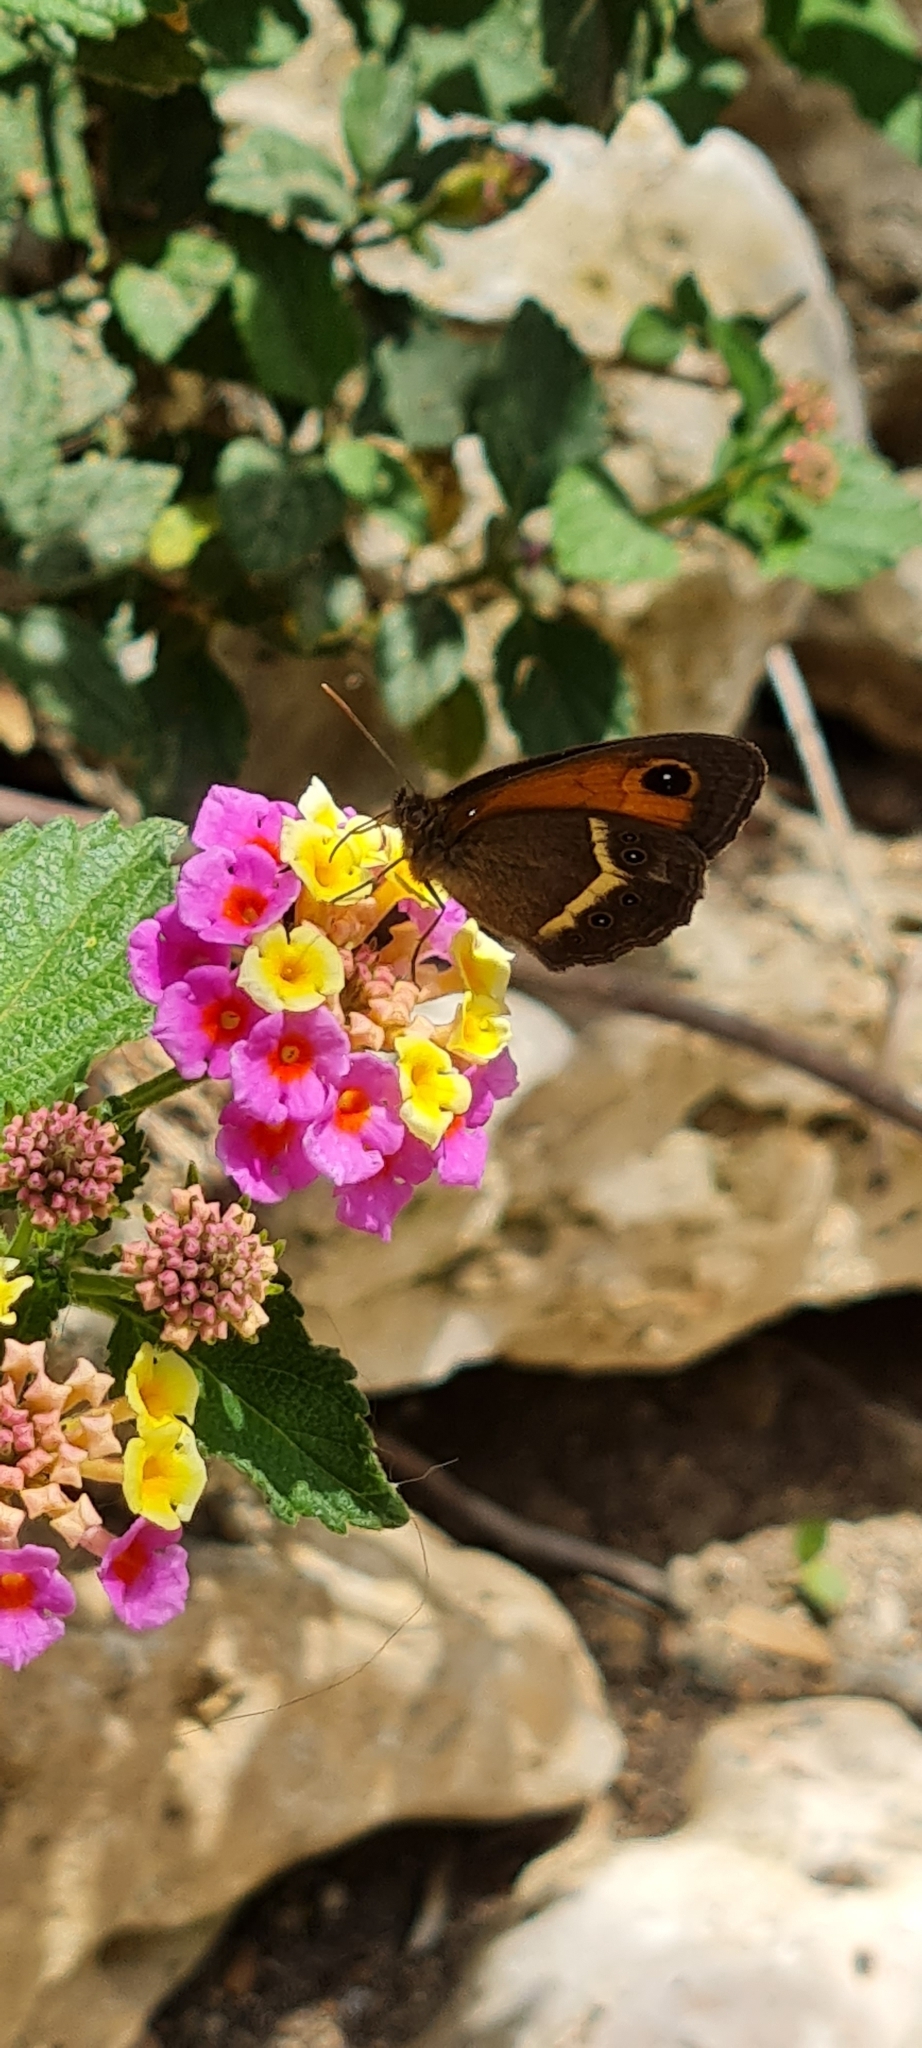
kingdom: Animalia
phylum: Arthropoda
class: Insecta
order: Lepidoptera
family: Nymphalidae
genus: Pyronia
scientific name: Pyronia bathseba
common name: Spanish gatekeeper
